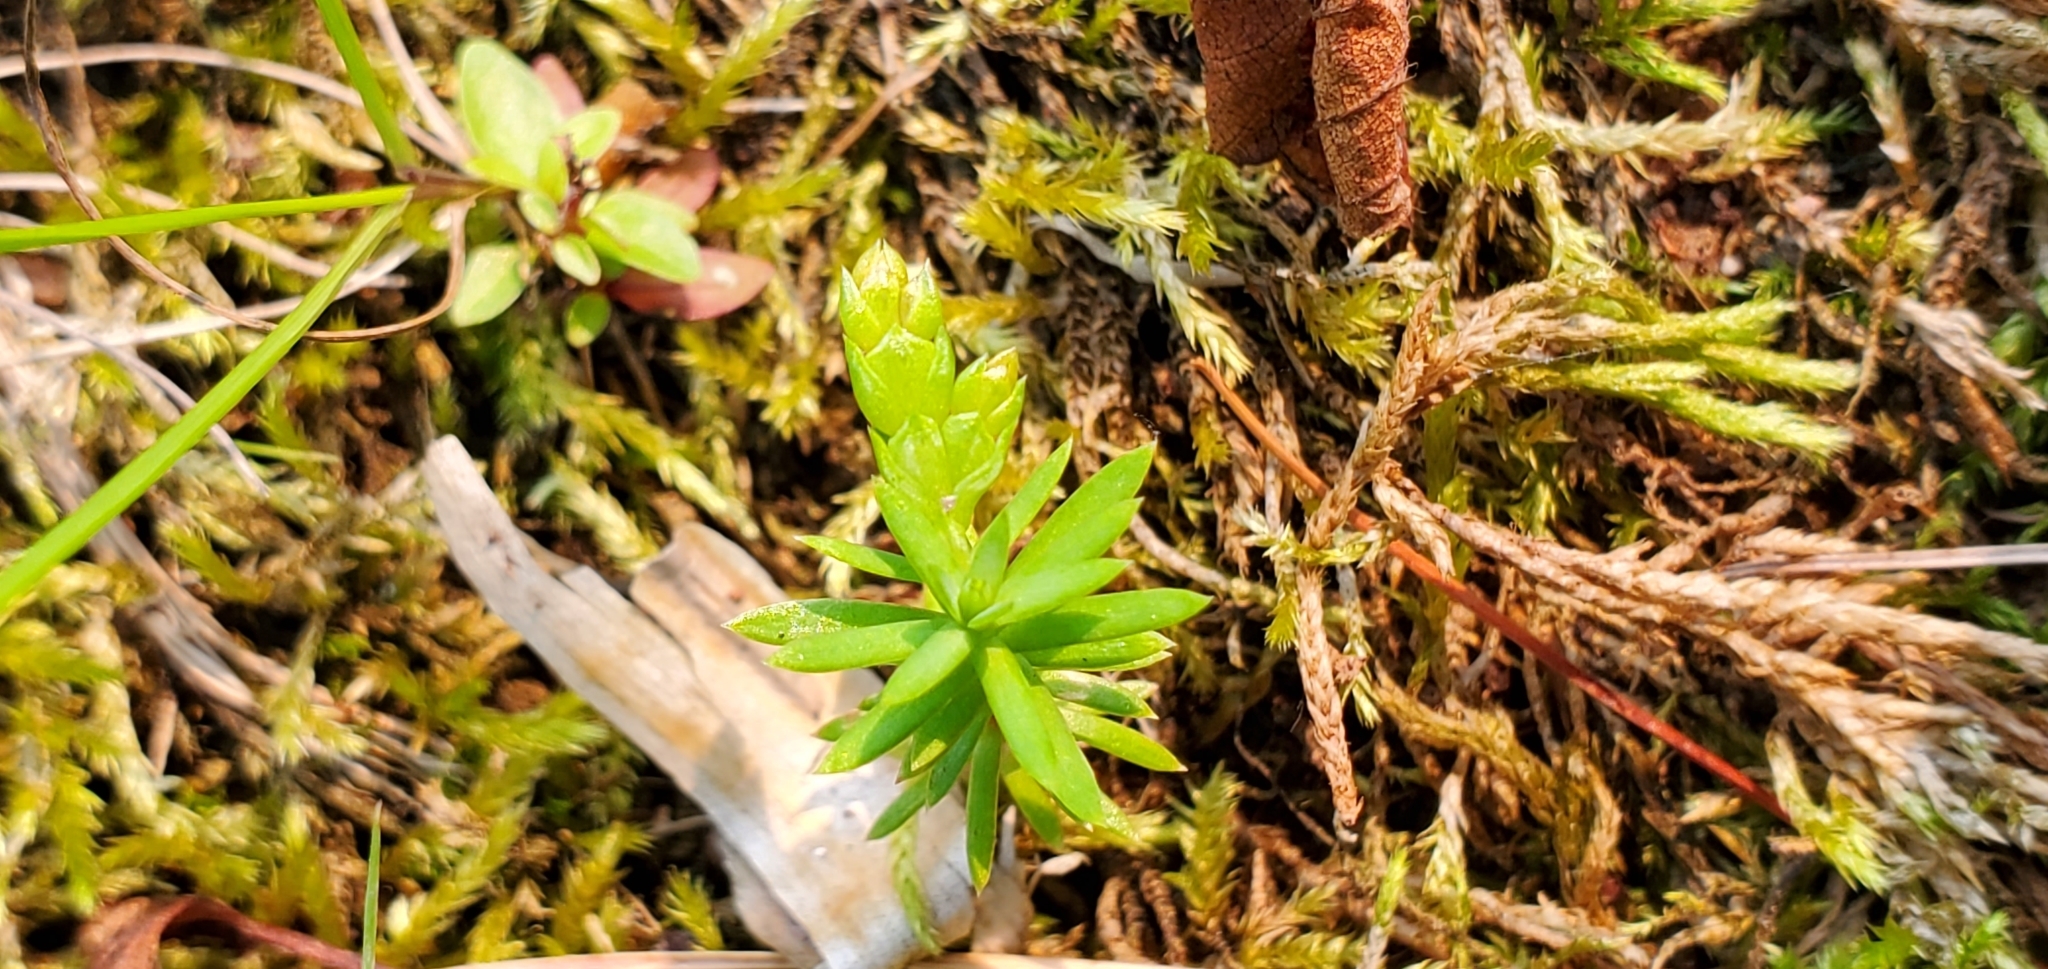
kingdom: Plantae
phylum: Tracheophyta
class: Pinopsida
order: Pinales
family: Cupressaceae
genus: Thuja
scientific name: Thuja occidentalis
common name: Northern white-cedar
